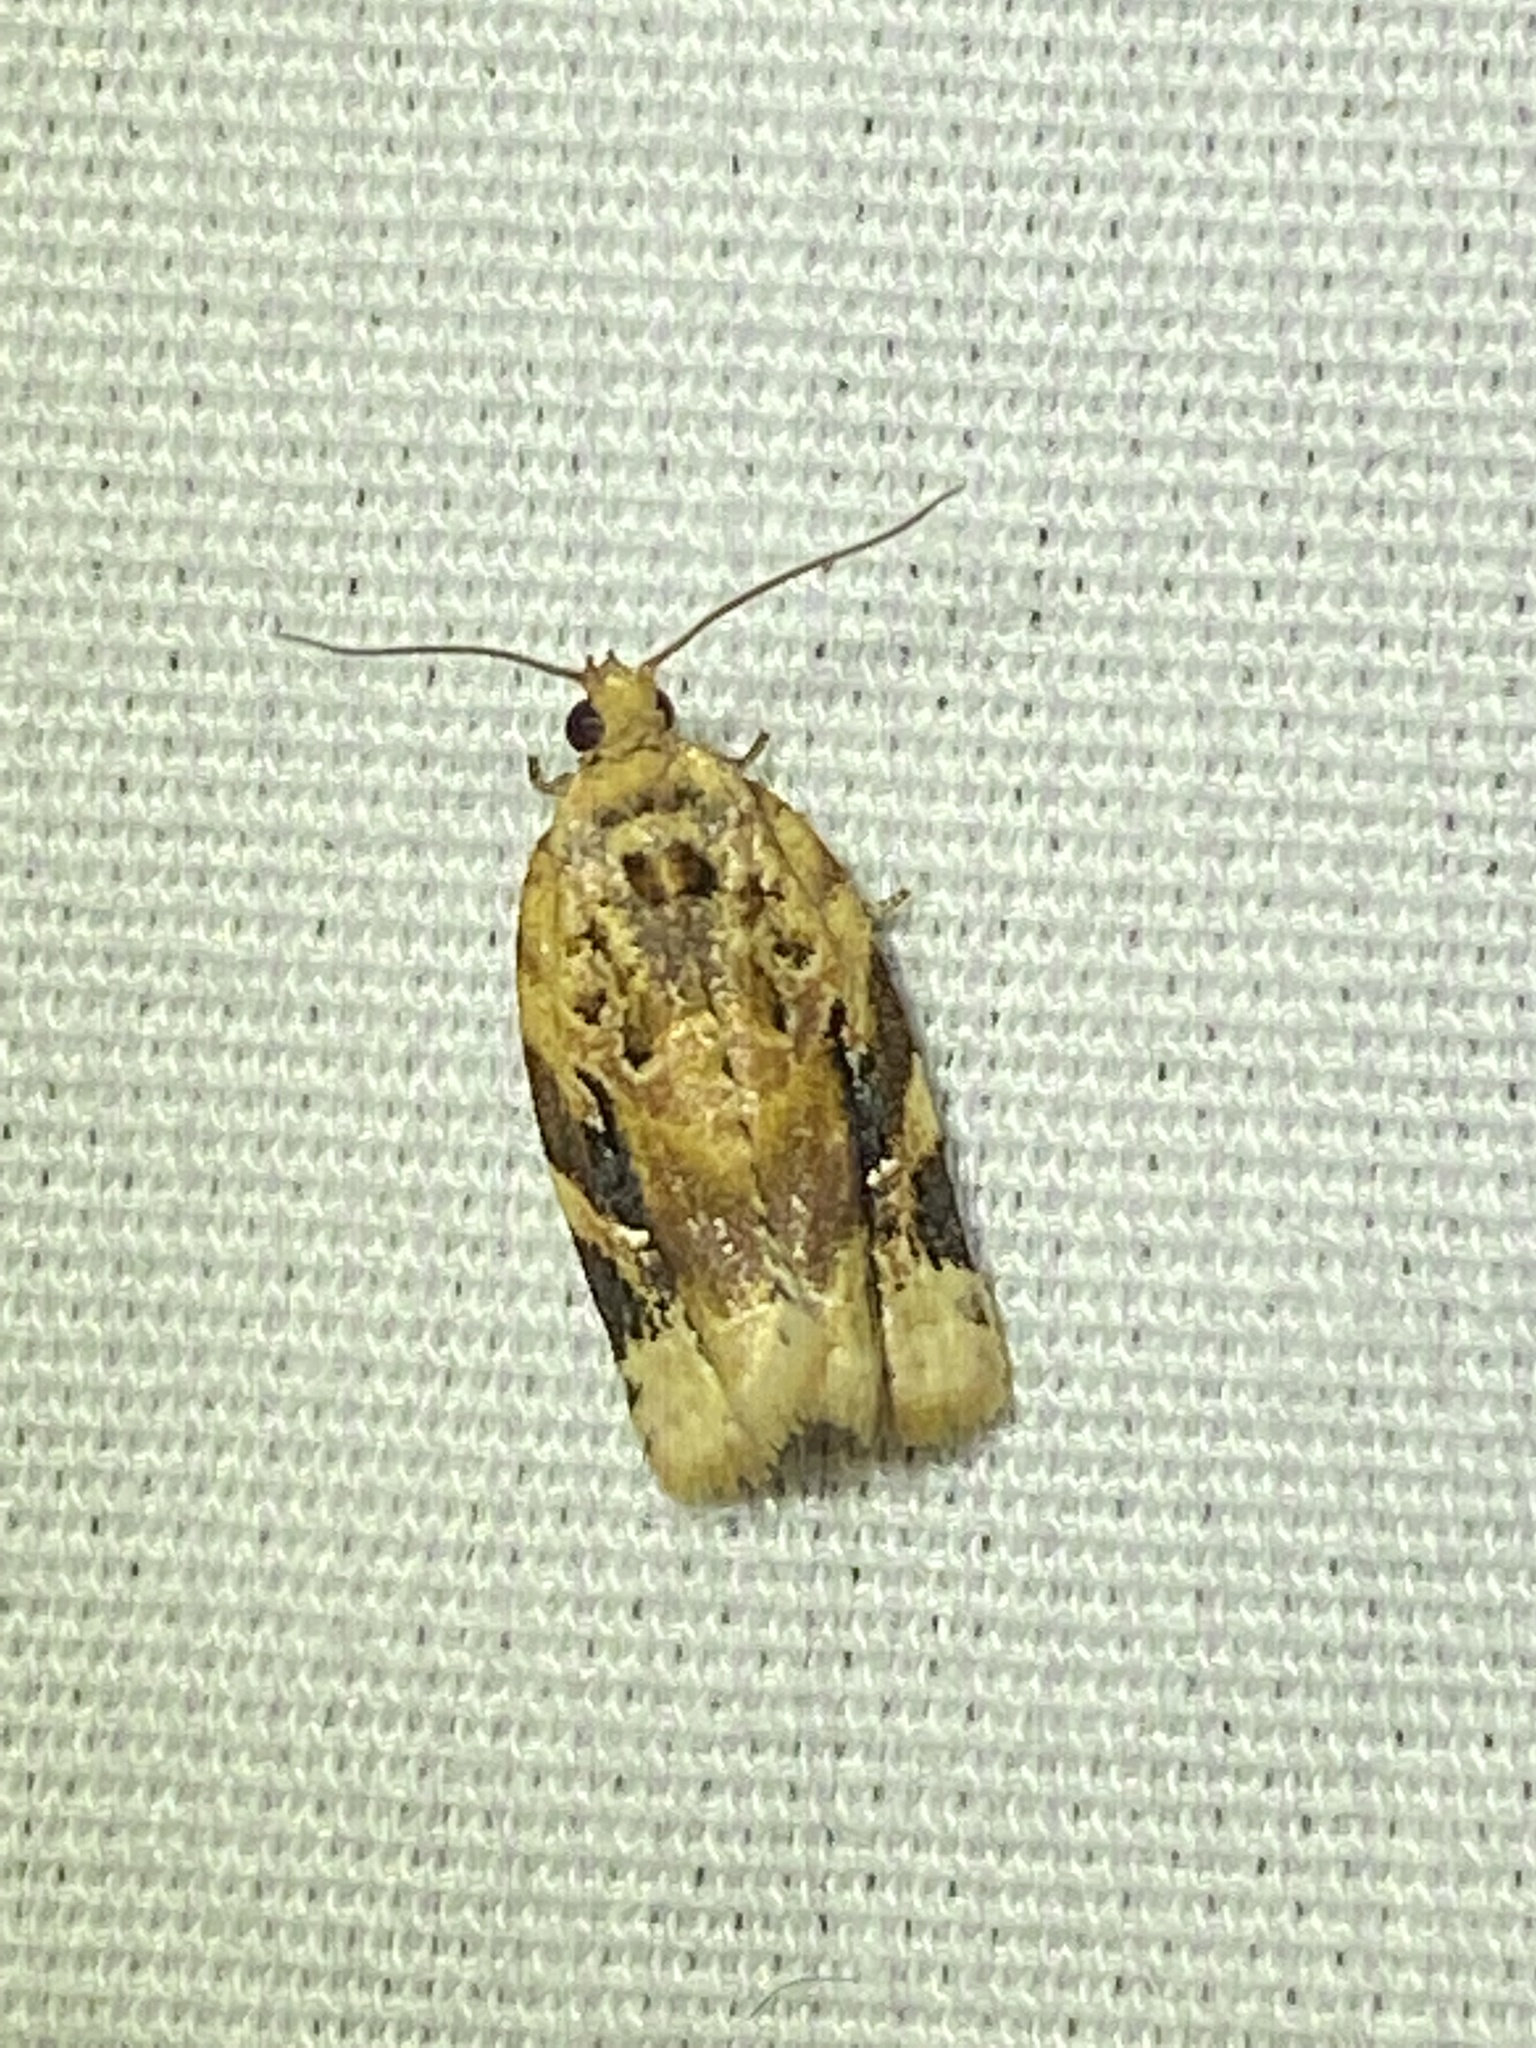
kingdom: Animalia
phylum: Arthropoda
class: Insecta
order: Lepidoptera
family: Tortricidae
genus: Argyrotaenia
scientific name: Argyrotaenia velutinana
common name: Red-banded leafroller moth
